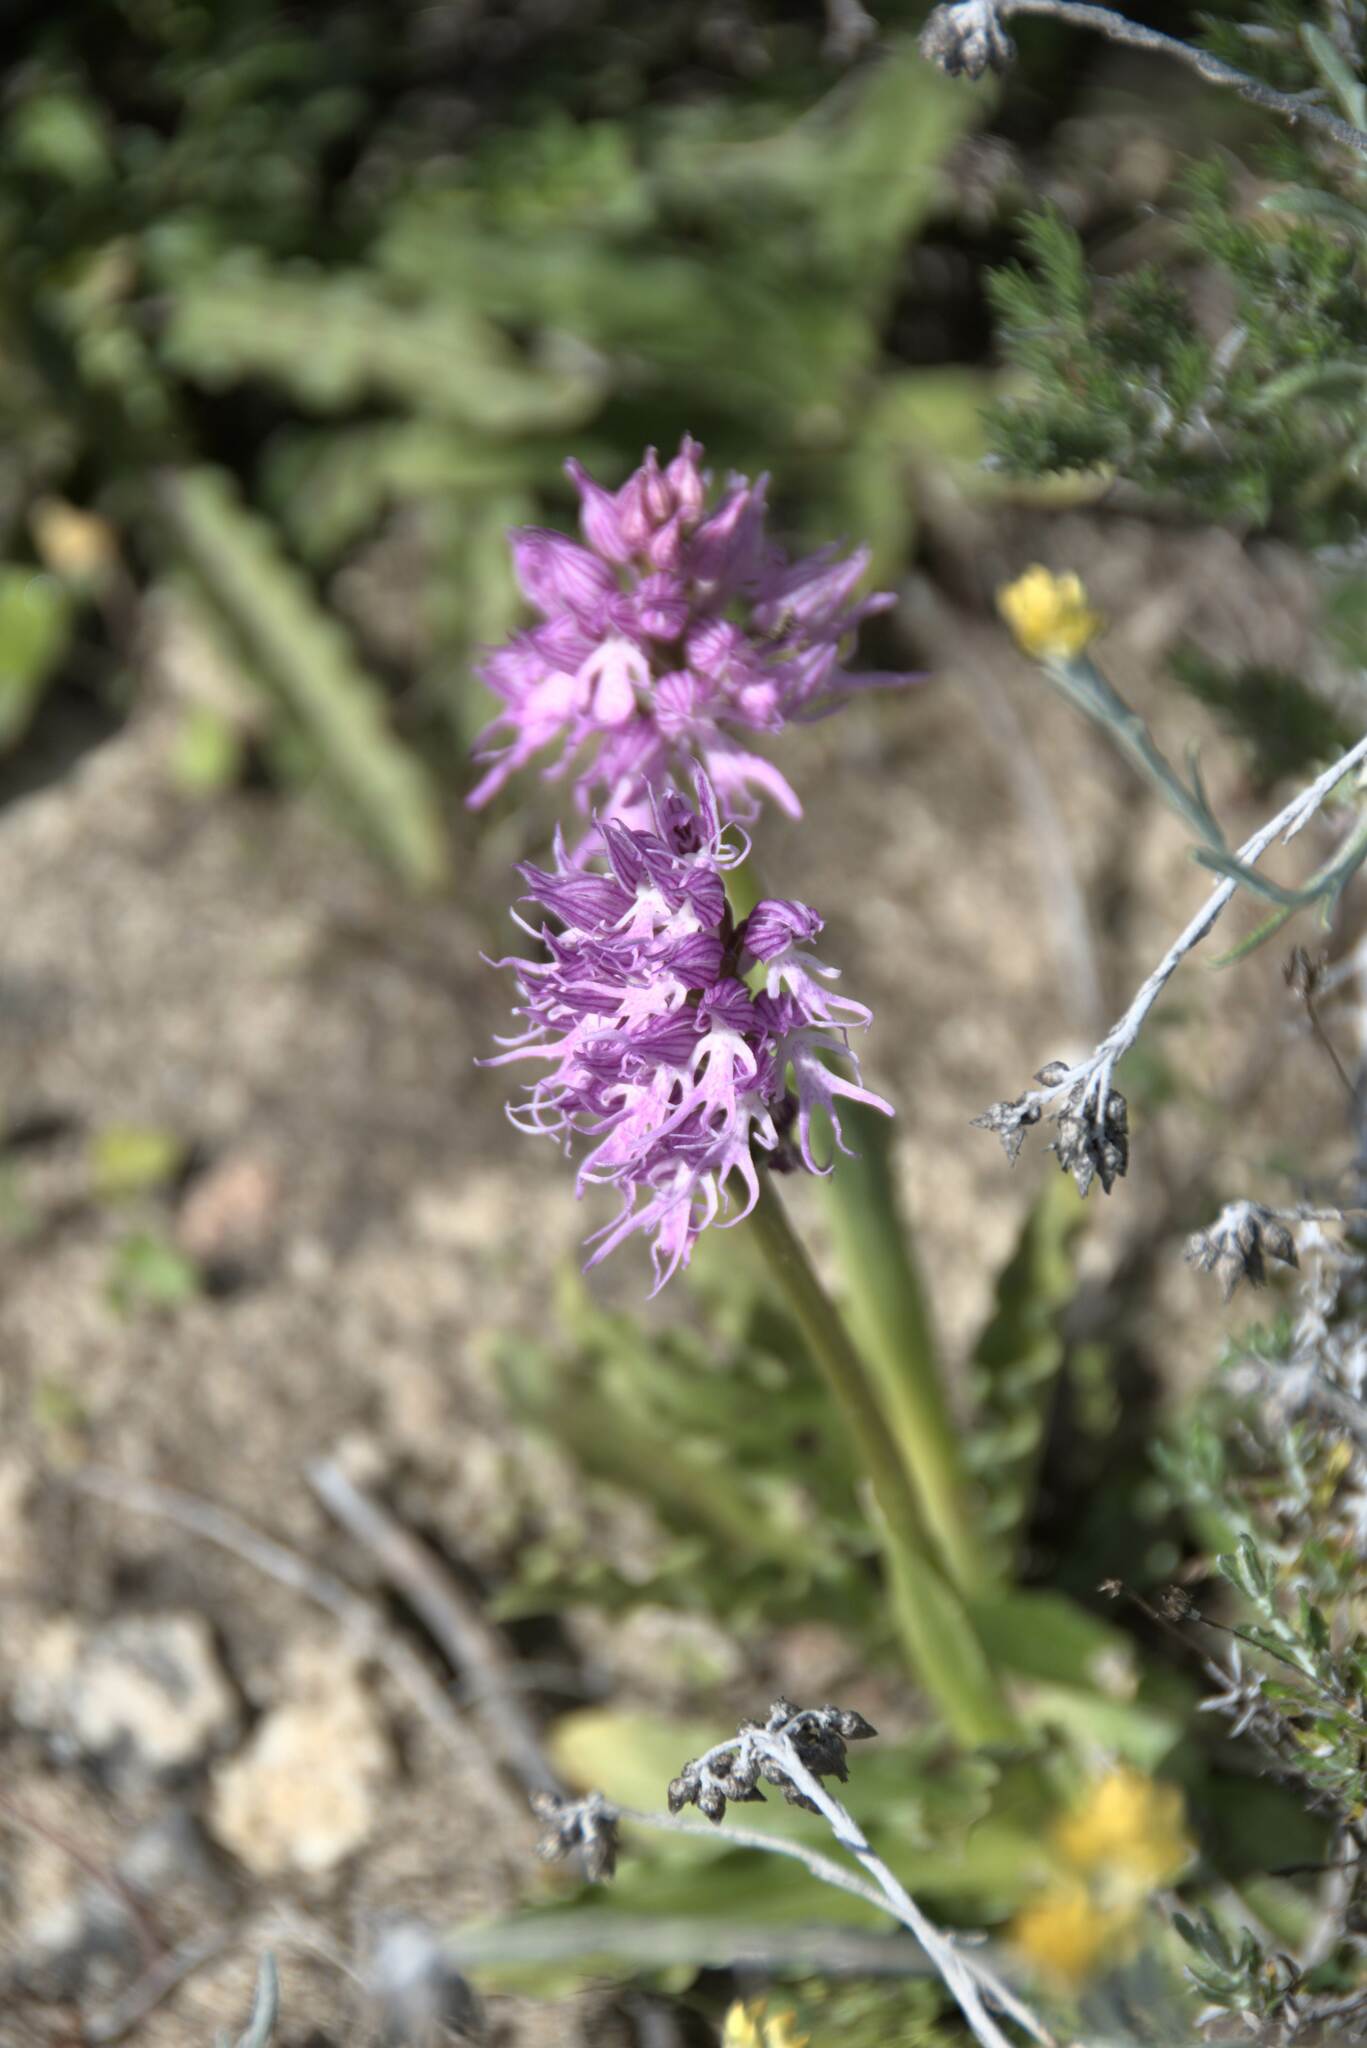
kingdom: Plantae
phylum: Tracheophyta
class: Liliopsida
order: Asparagales
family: Orchidaceae
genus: Orchis
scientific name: Orchis italica
